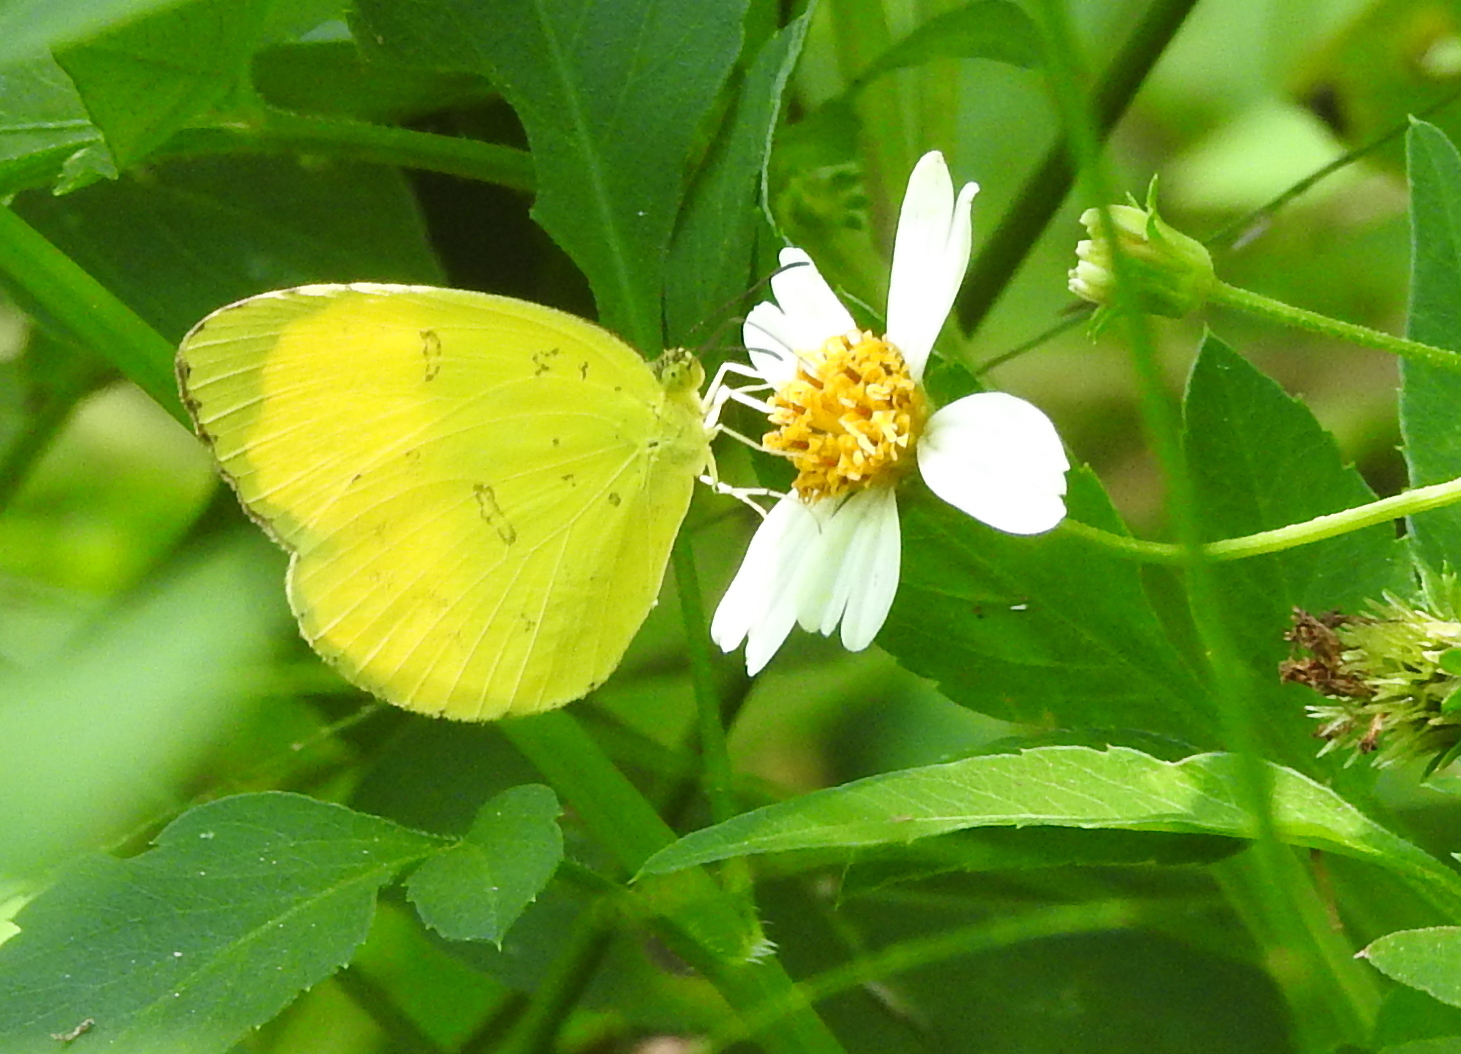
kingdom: Animalia
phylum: Arthropoda
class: Insecta
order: Lepidoptera
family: Pieridae
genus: Eurema
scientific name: Eurema blanda
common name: Three-spot grass yellow
